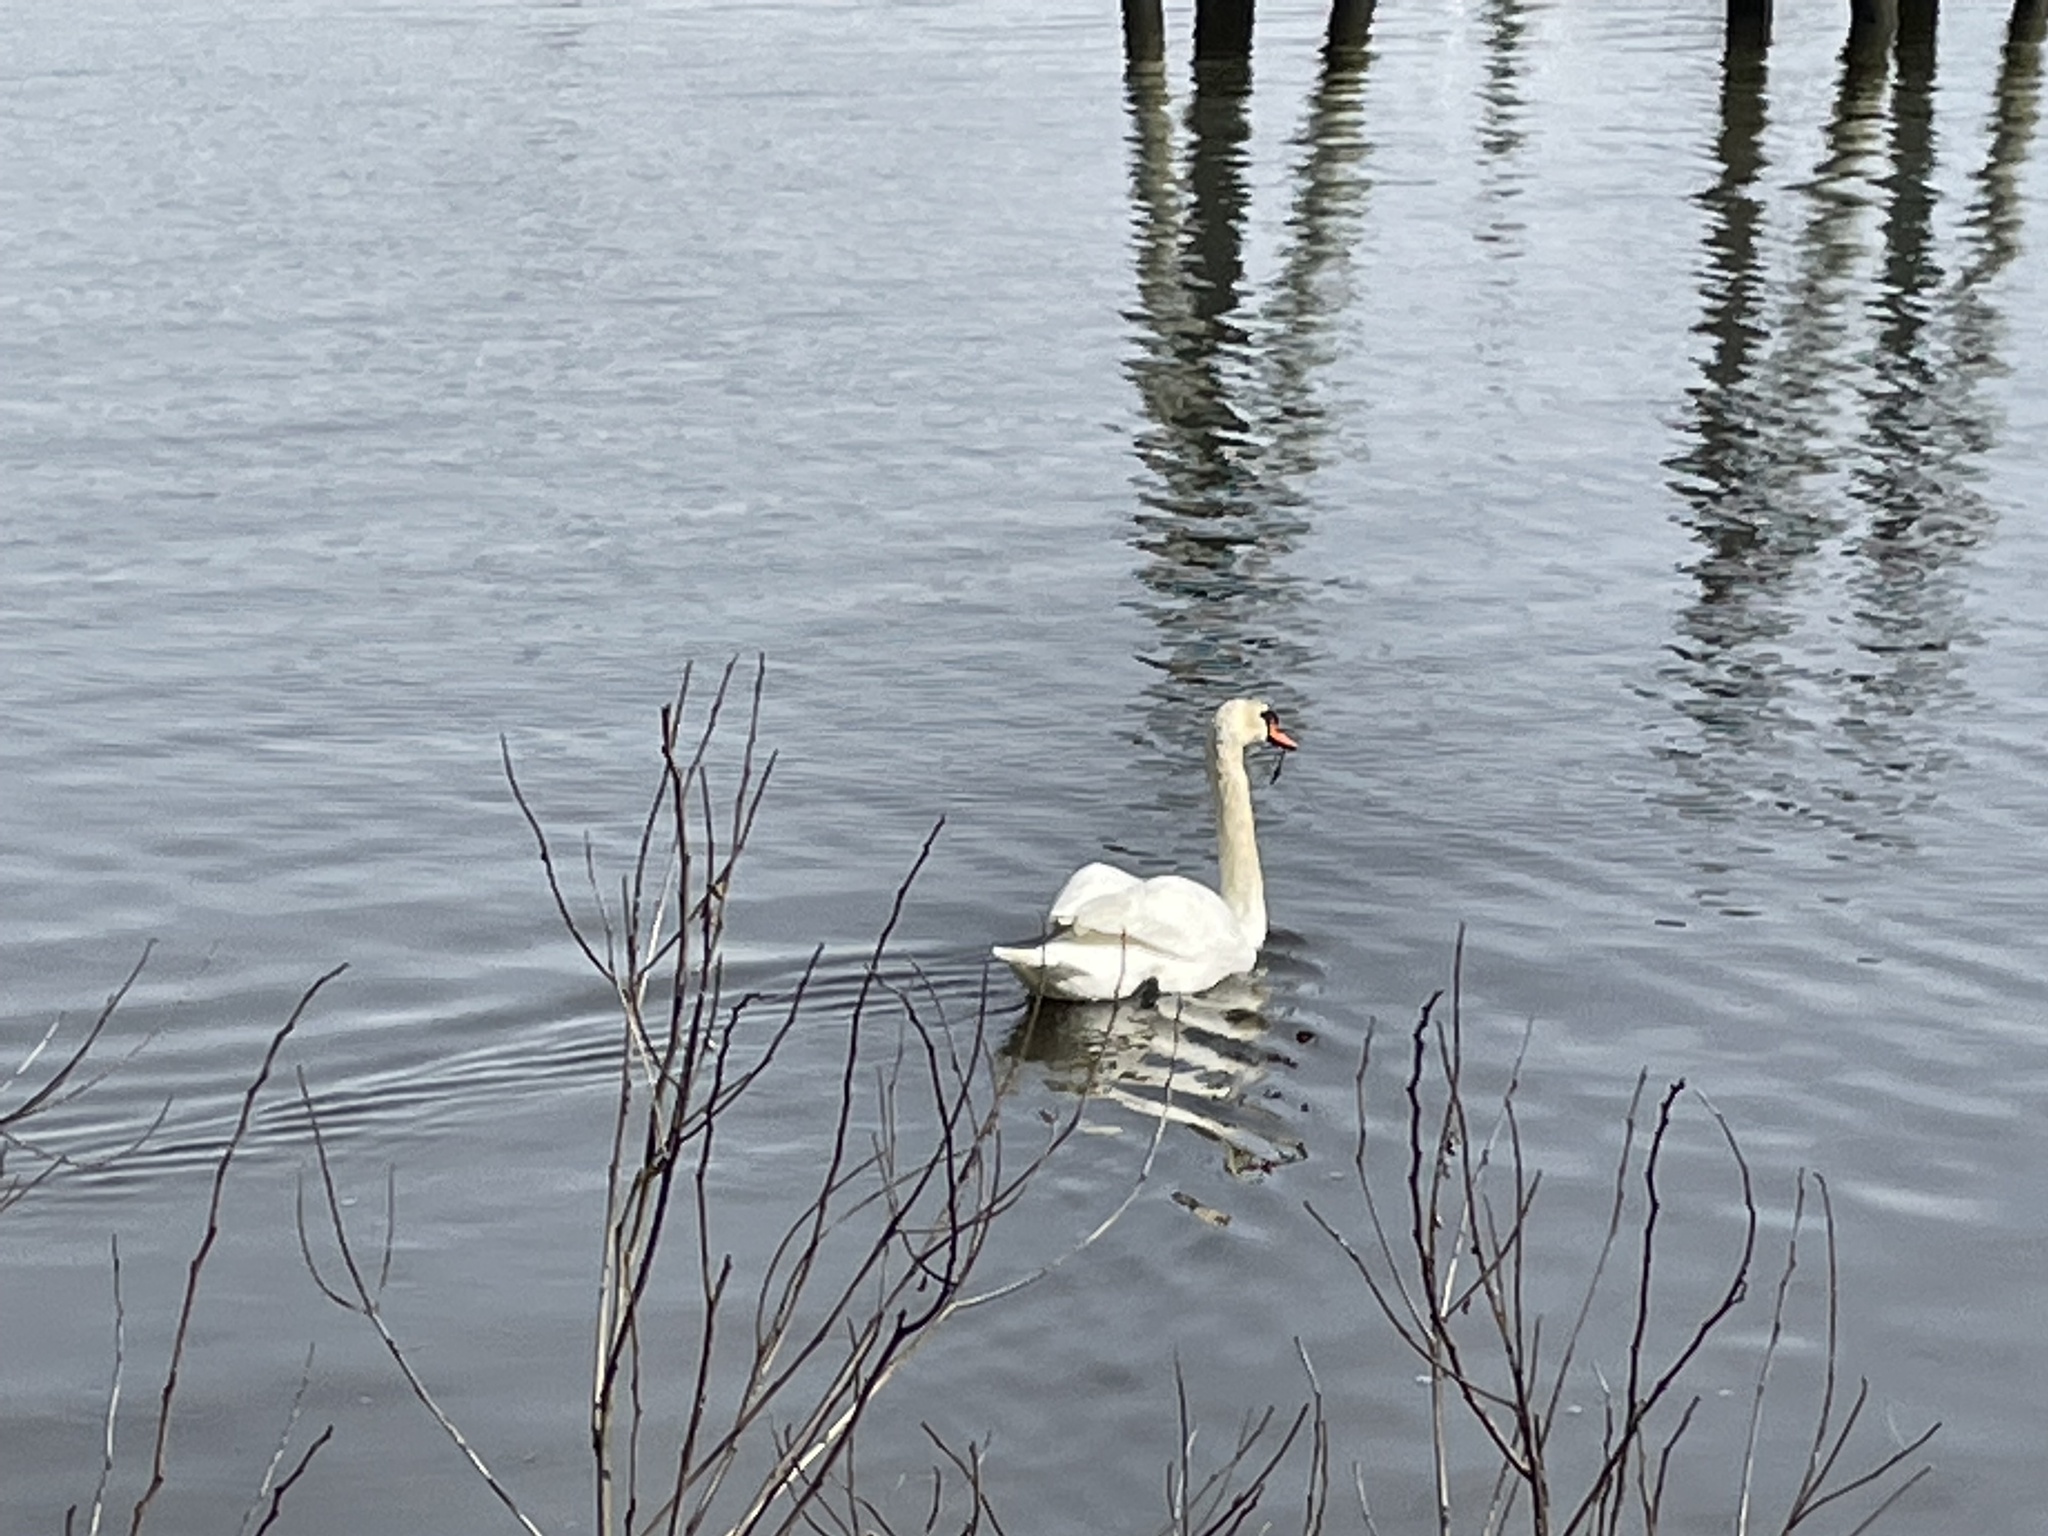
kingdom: Animalia
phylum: Chordata
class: Aves
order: Anseriformes
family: Anatidae
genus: Cygnus
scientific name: Cygnus olor
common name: Mute swan
